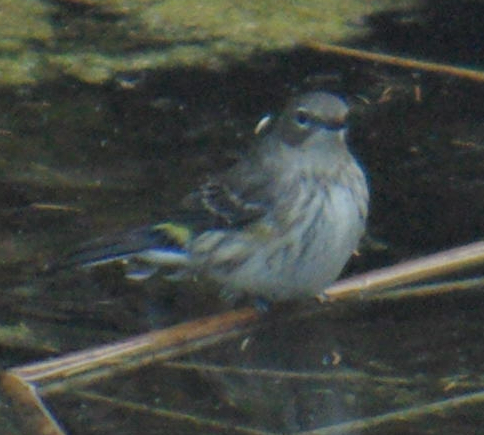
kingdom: Animalia
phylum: Chordata
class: Aves
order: Passeriformes
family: Parulidae
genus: Setophaga
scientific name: Setophaga coronata
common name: Myrtle warbler
